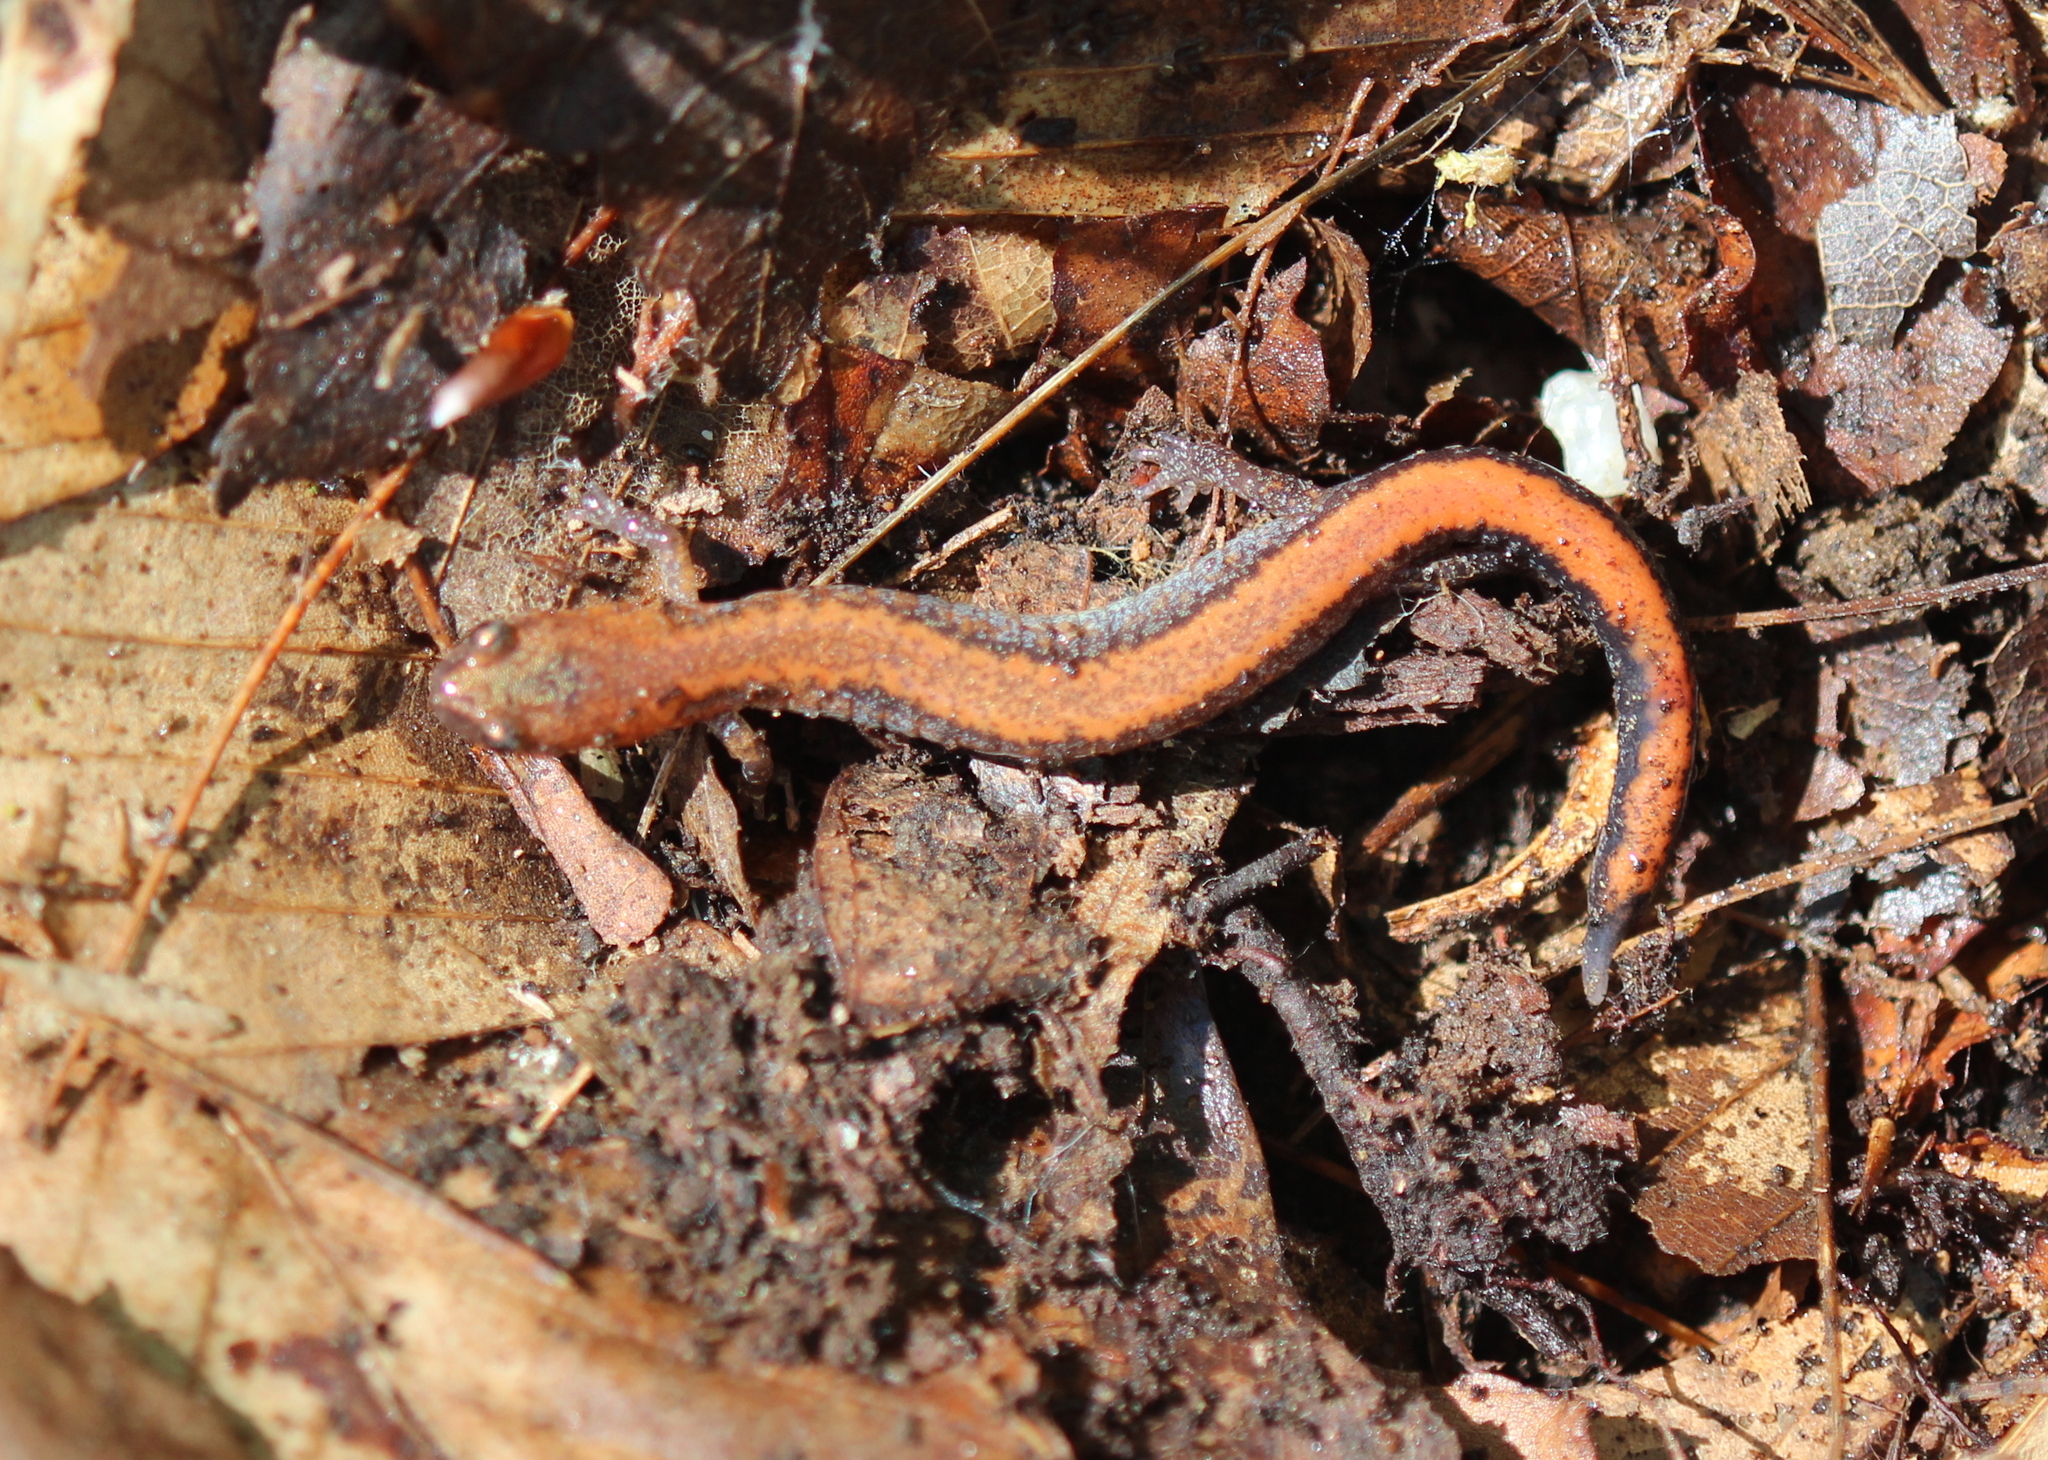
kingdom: Animalia
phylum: Chordata
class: Amphibia
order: Caudata
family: Plethodontidae
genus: Plethodon
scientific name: Plethodon cinereus
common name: Redback salamander
